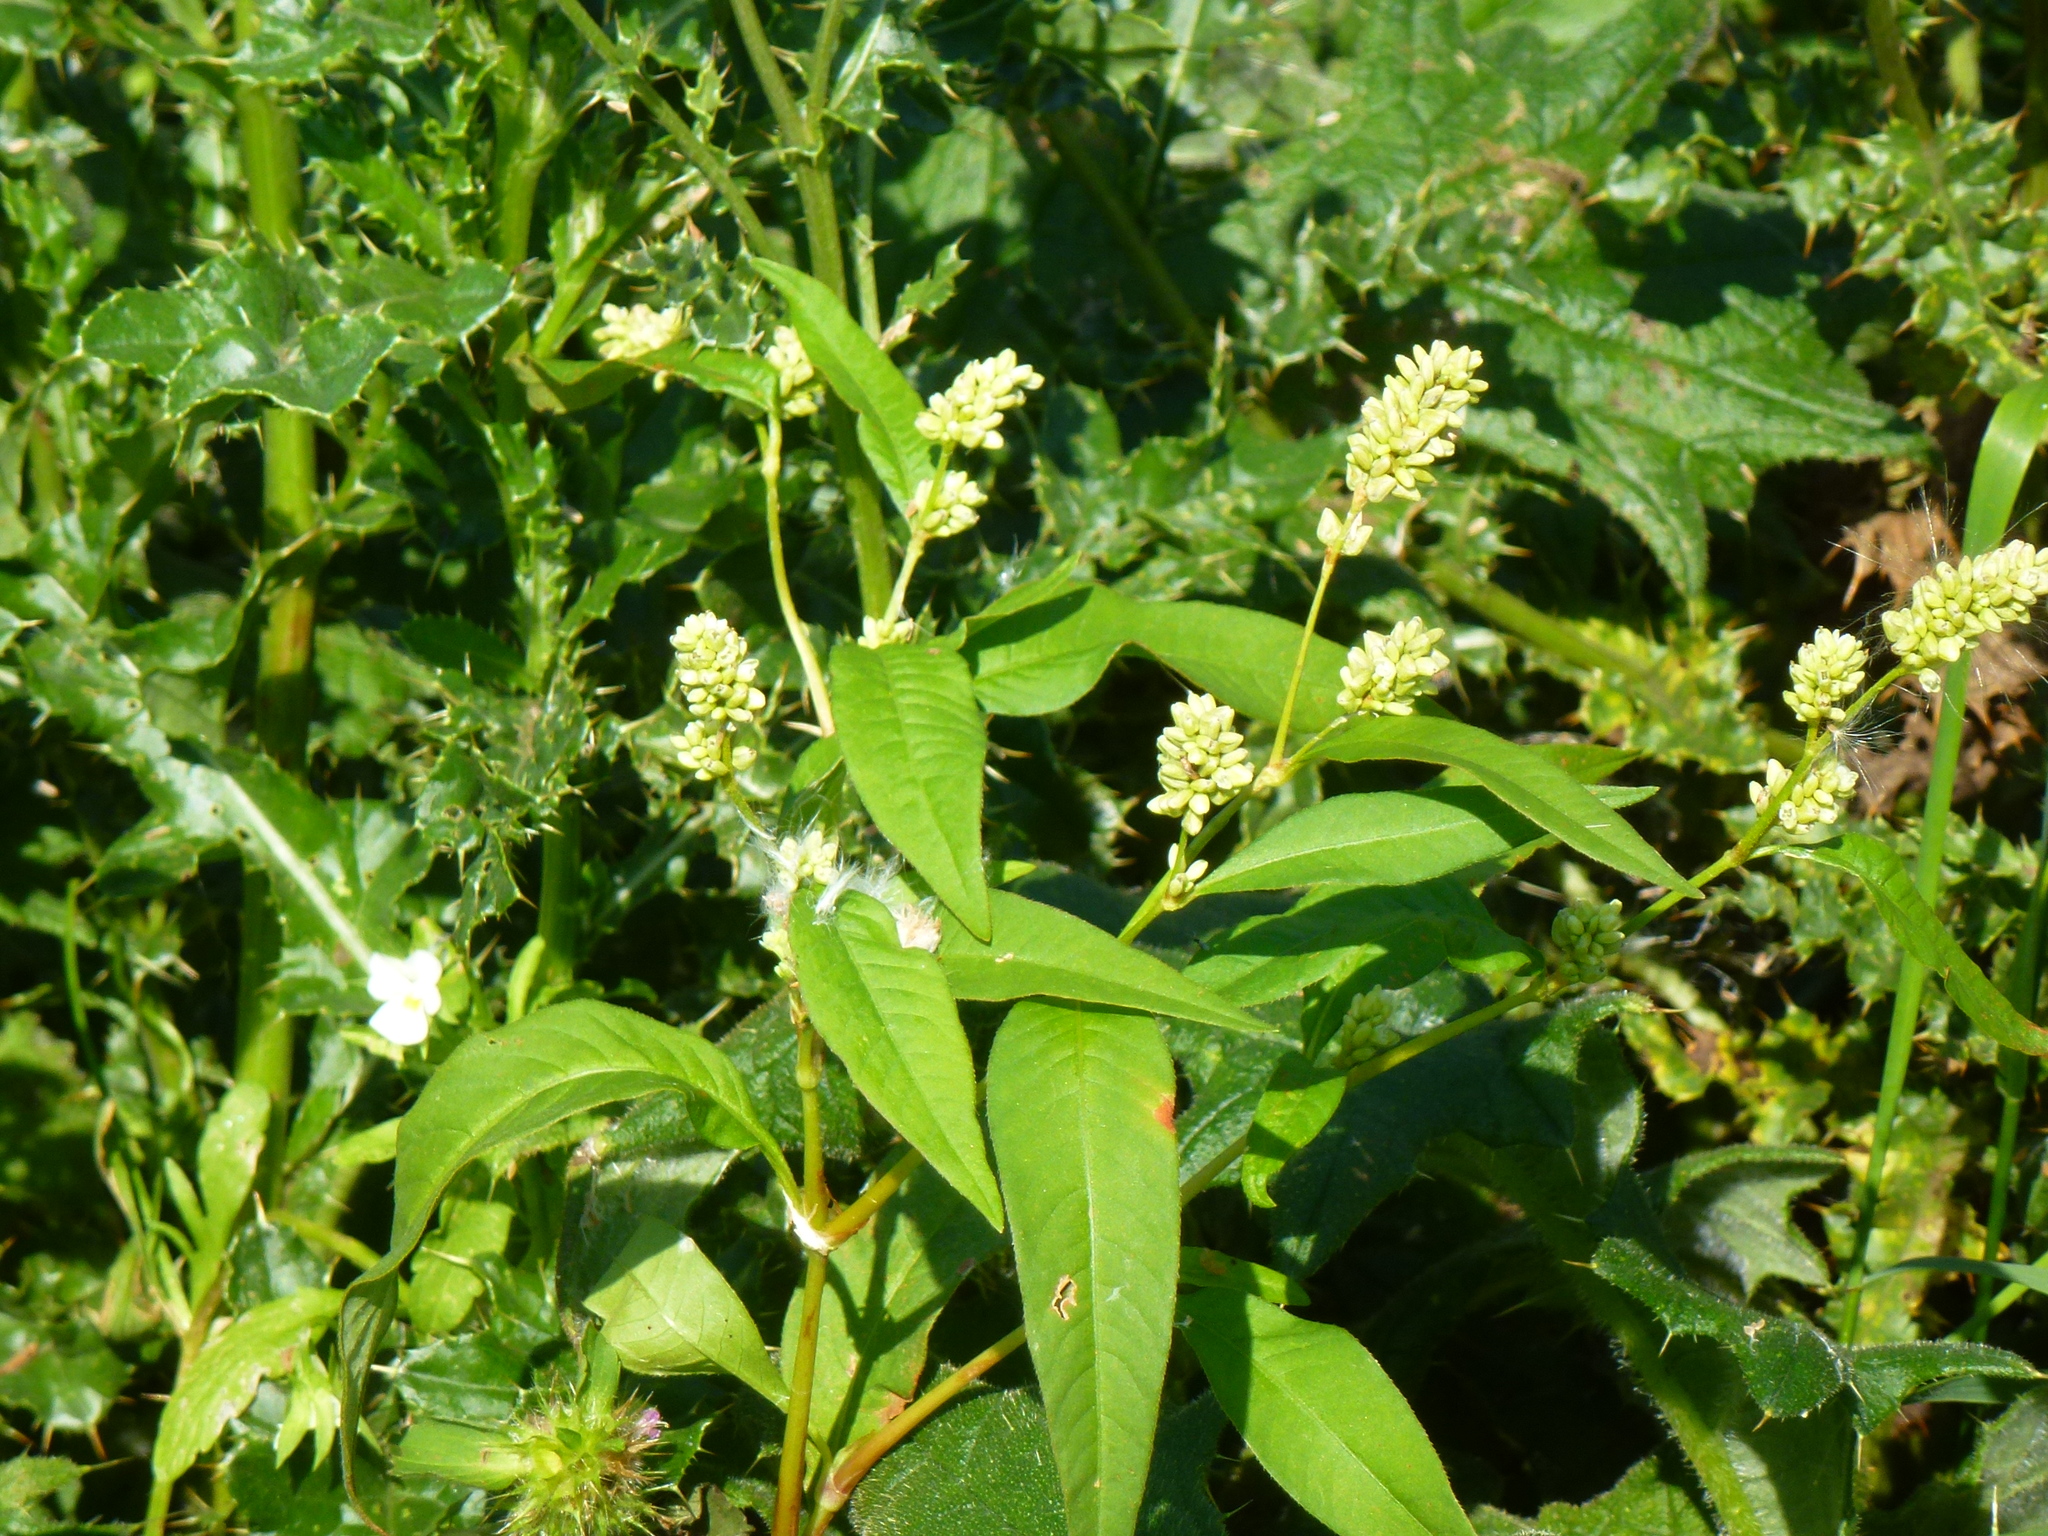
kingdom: Plantae
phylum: Tracheophyta
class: Magnoliopsida
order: Caryophyllales
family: Polygonaceae
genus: Persicaria
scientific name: Persicaria lapathifolia
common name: Curlytop knotweed
